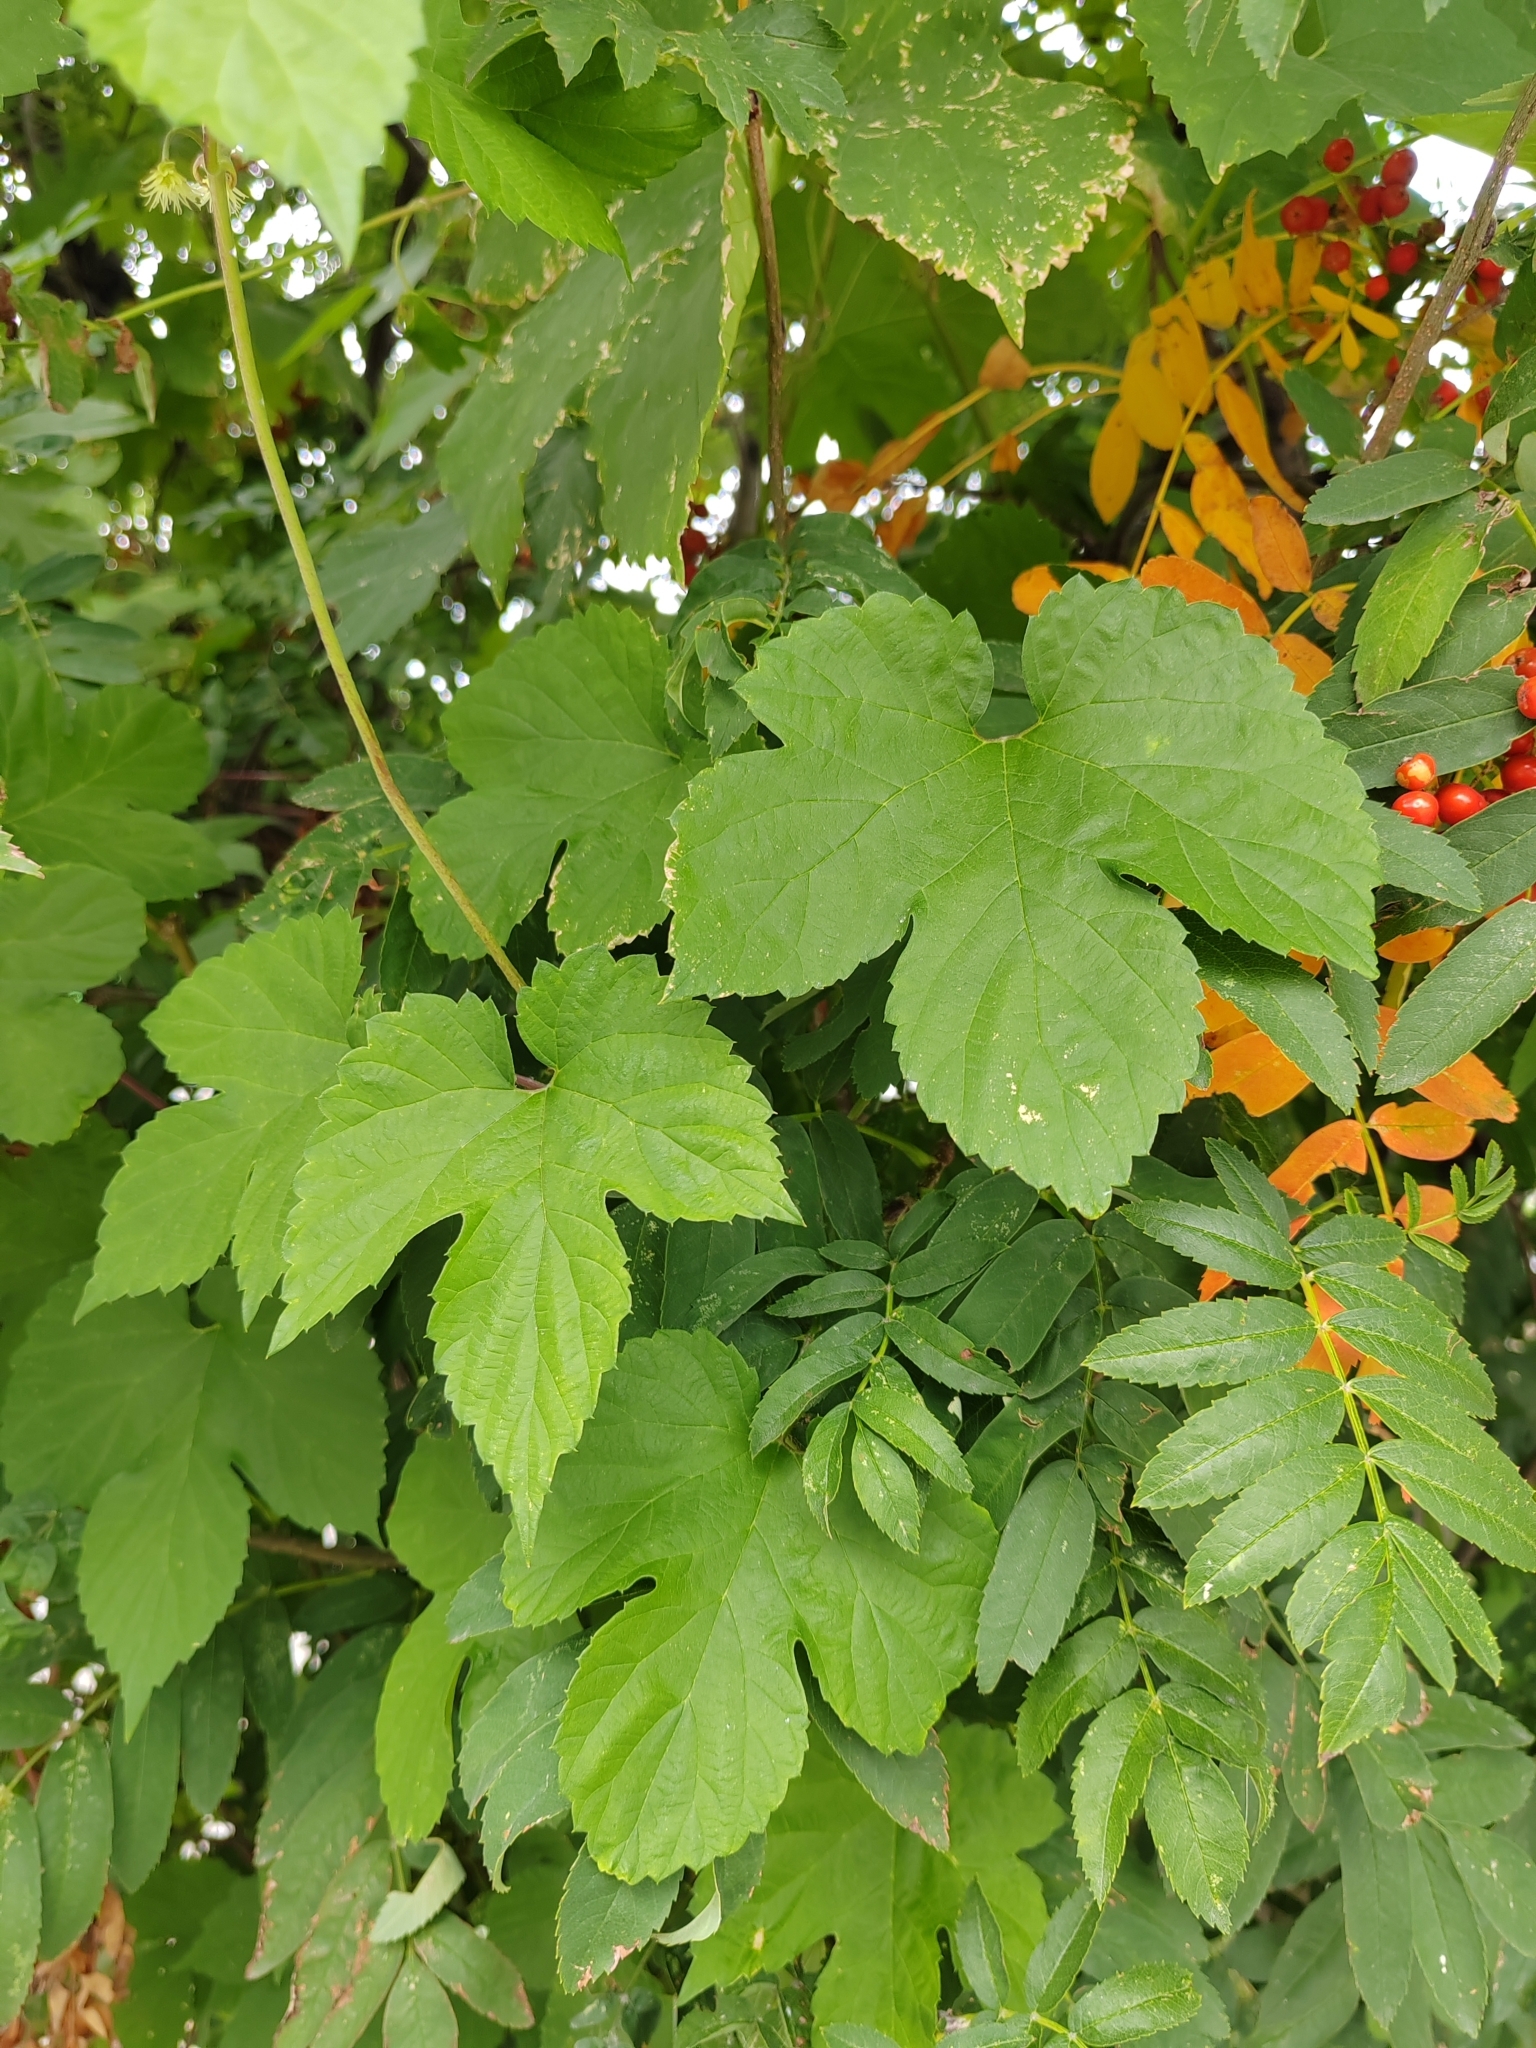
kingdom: Plantae
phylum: Tracheophyta
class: Magnoliopsida
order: Rosales
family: Cannabaceae
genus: Humulus
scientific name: Humulus lupulus
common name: Hop
